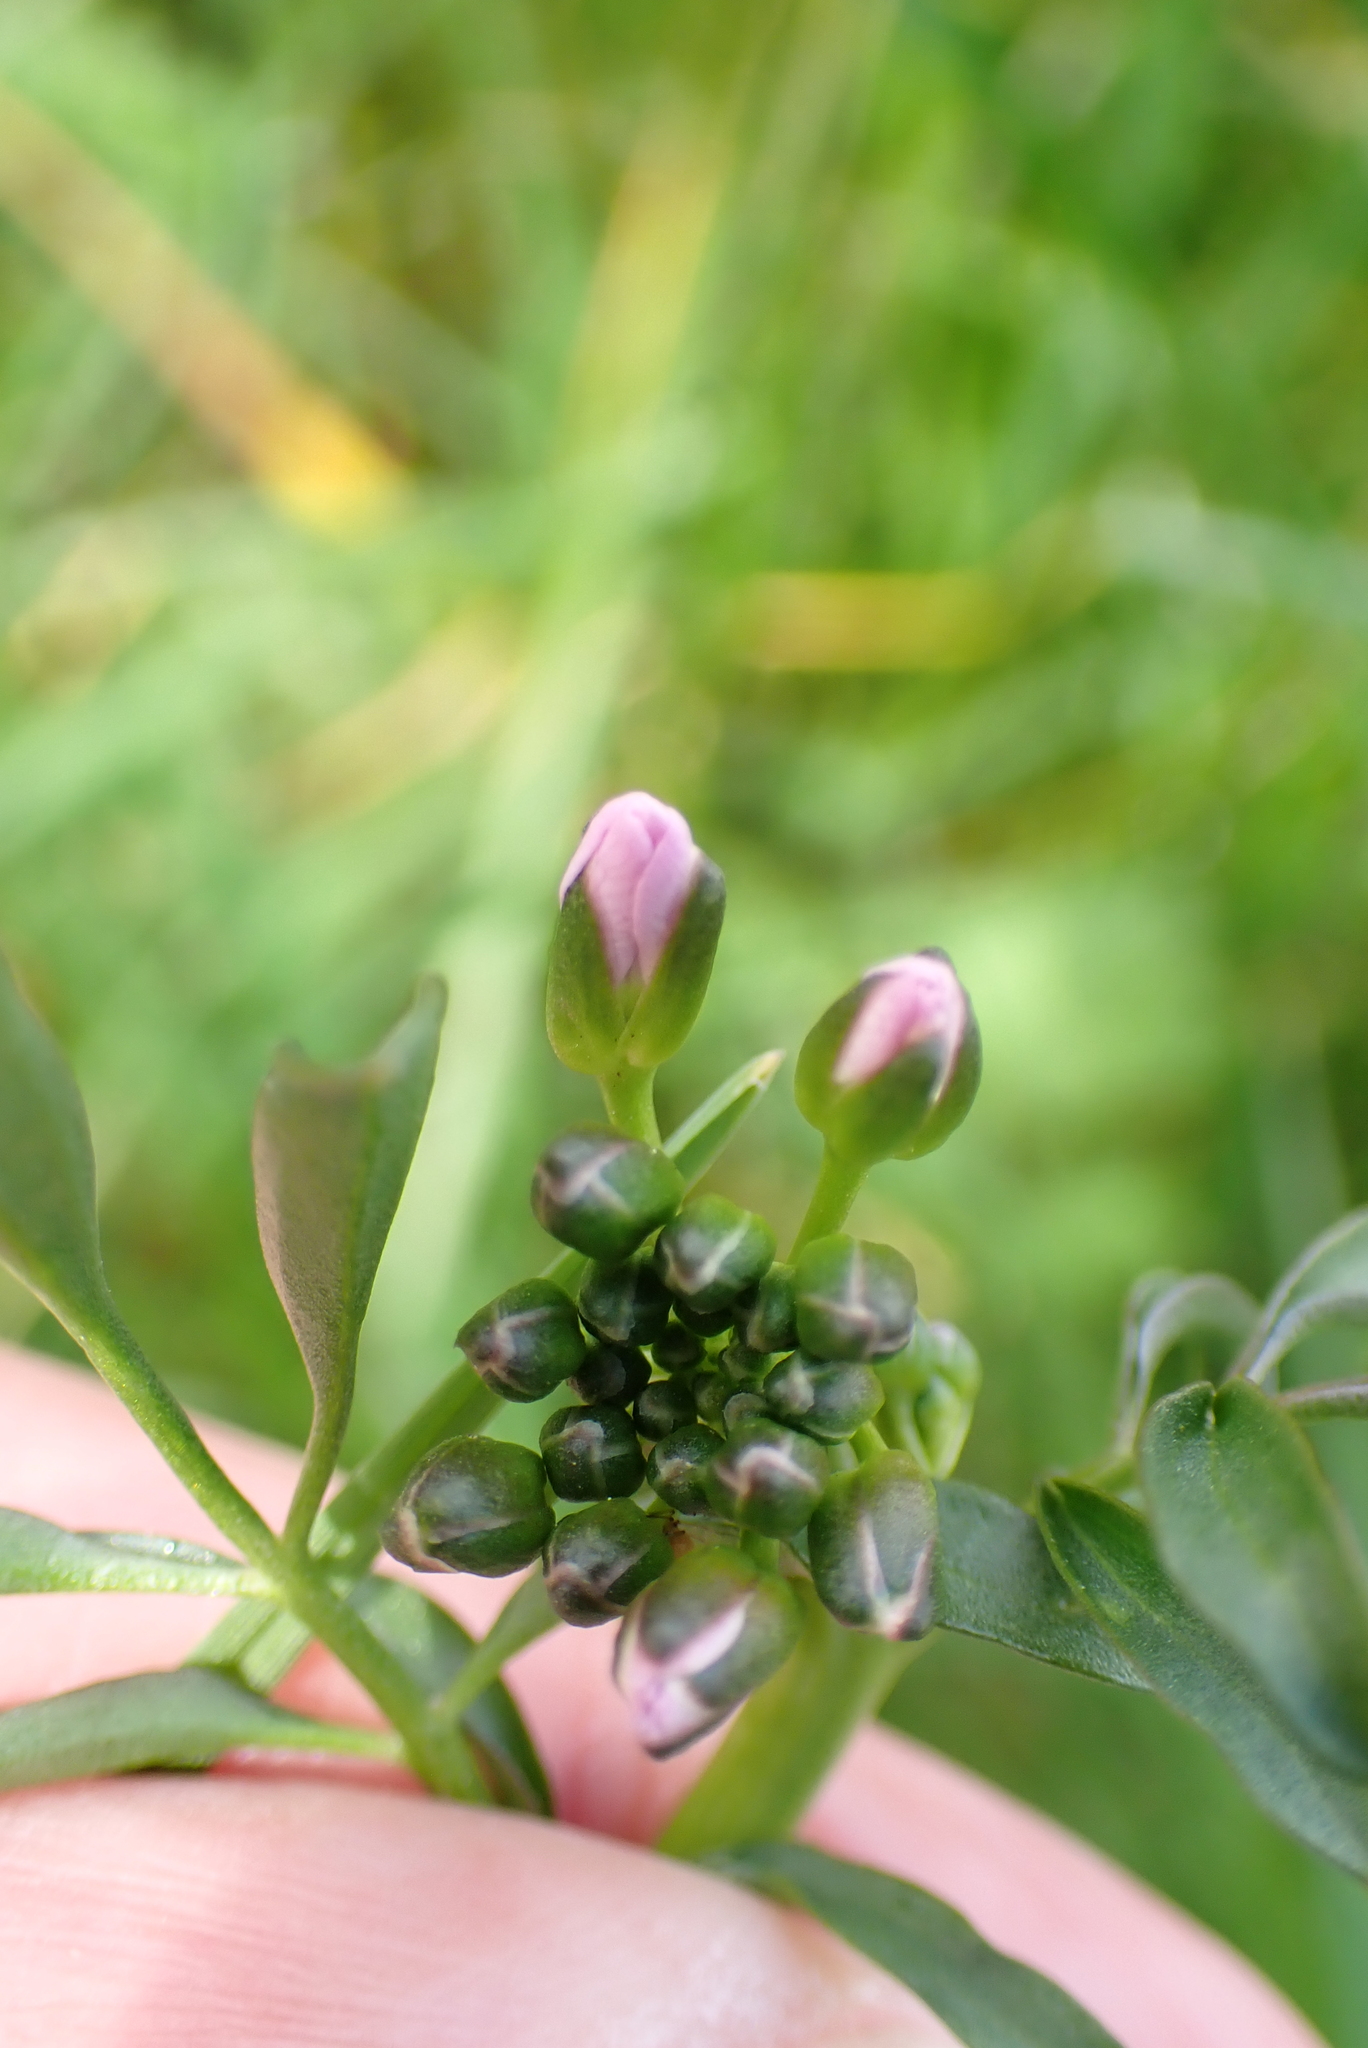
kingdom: Plantae
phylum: Tracheophyta
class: Magnoliopsida
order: Brassicales
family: Brassicaceae
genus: Cardamine
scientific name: Cardamine pratensis
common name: Cuckoo flower
